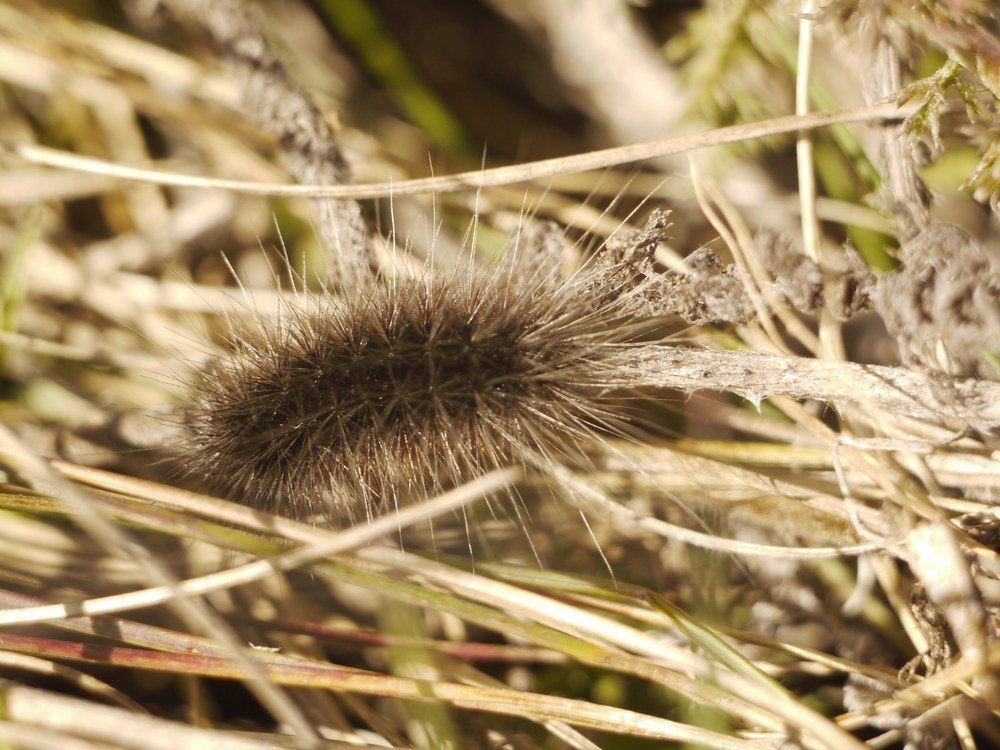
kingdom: Animalia
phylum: Arthropoda
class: Insecta
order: Lepidoptera
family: Erebidae
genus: Eucharia
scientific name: Eucharia festiva
